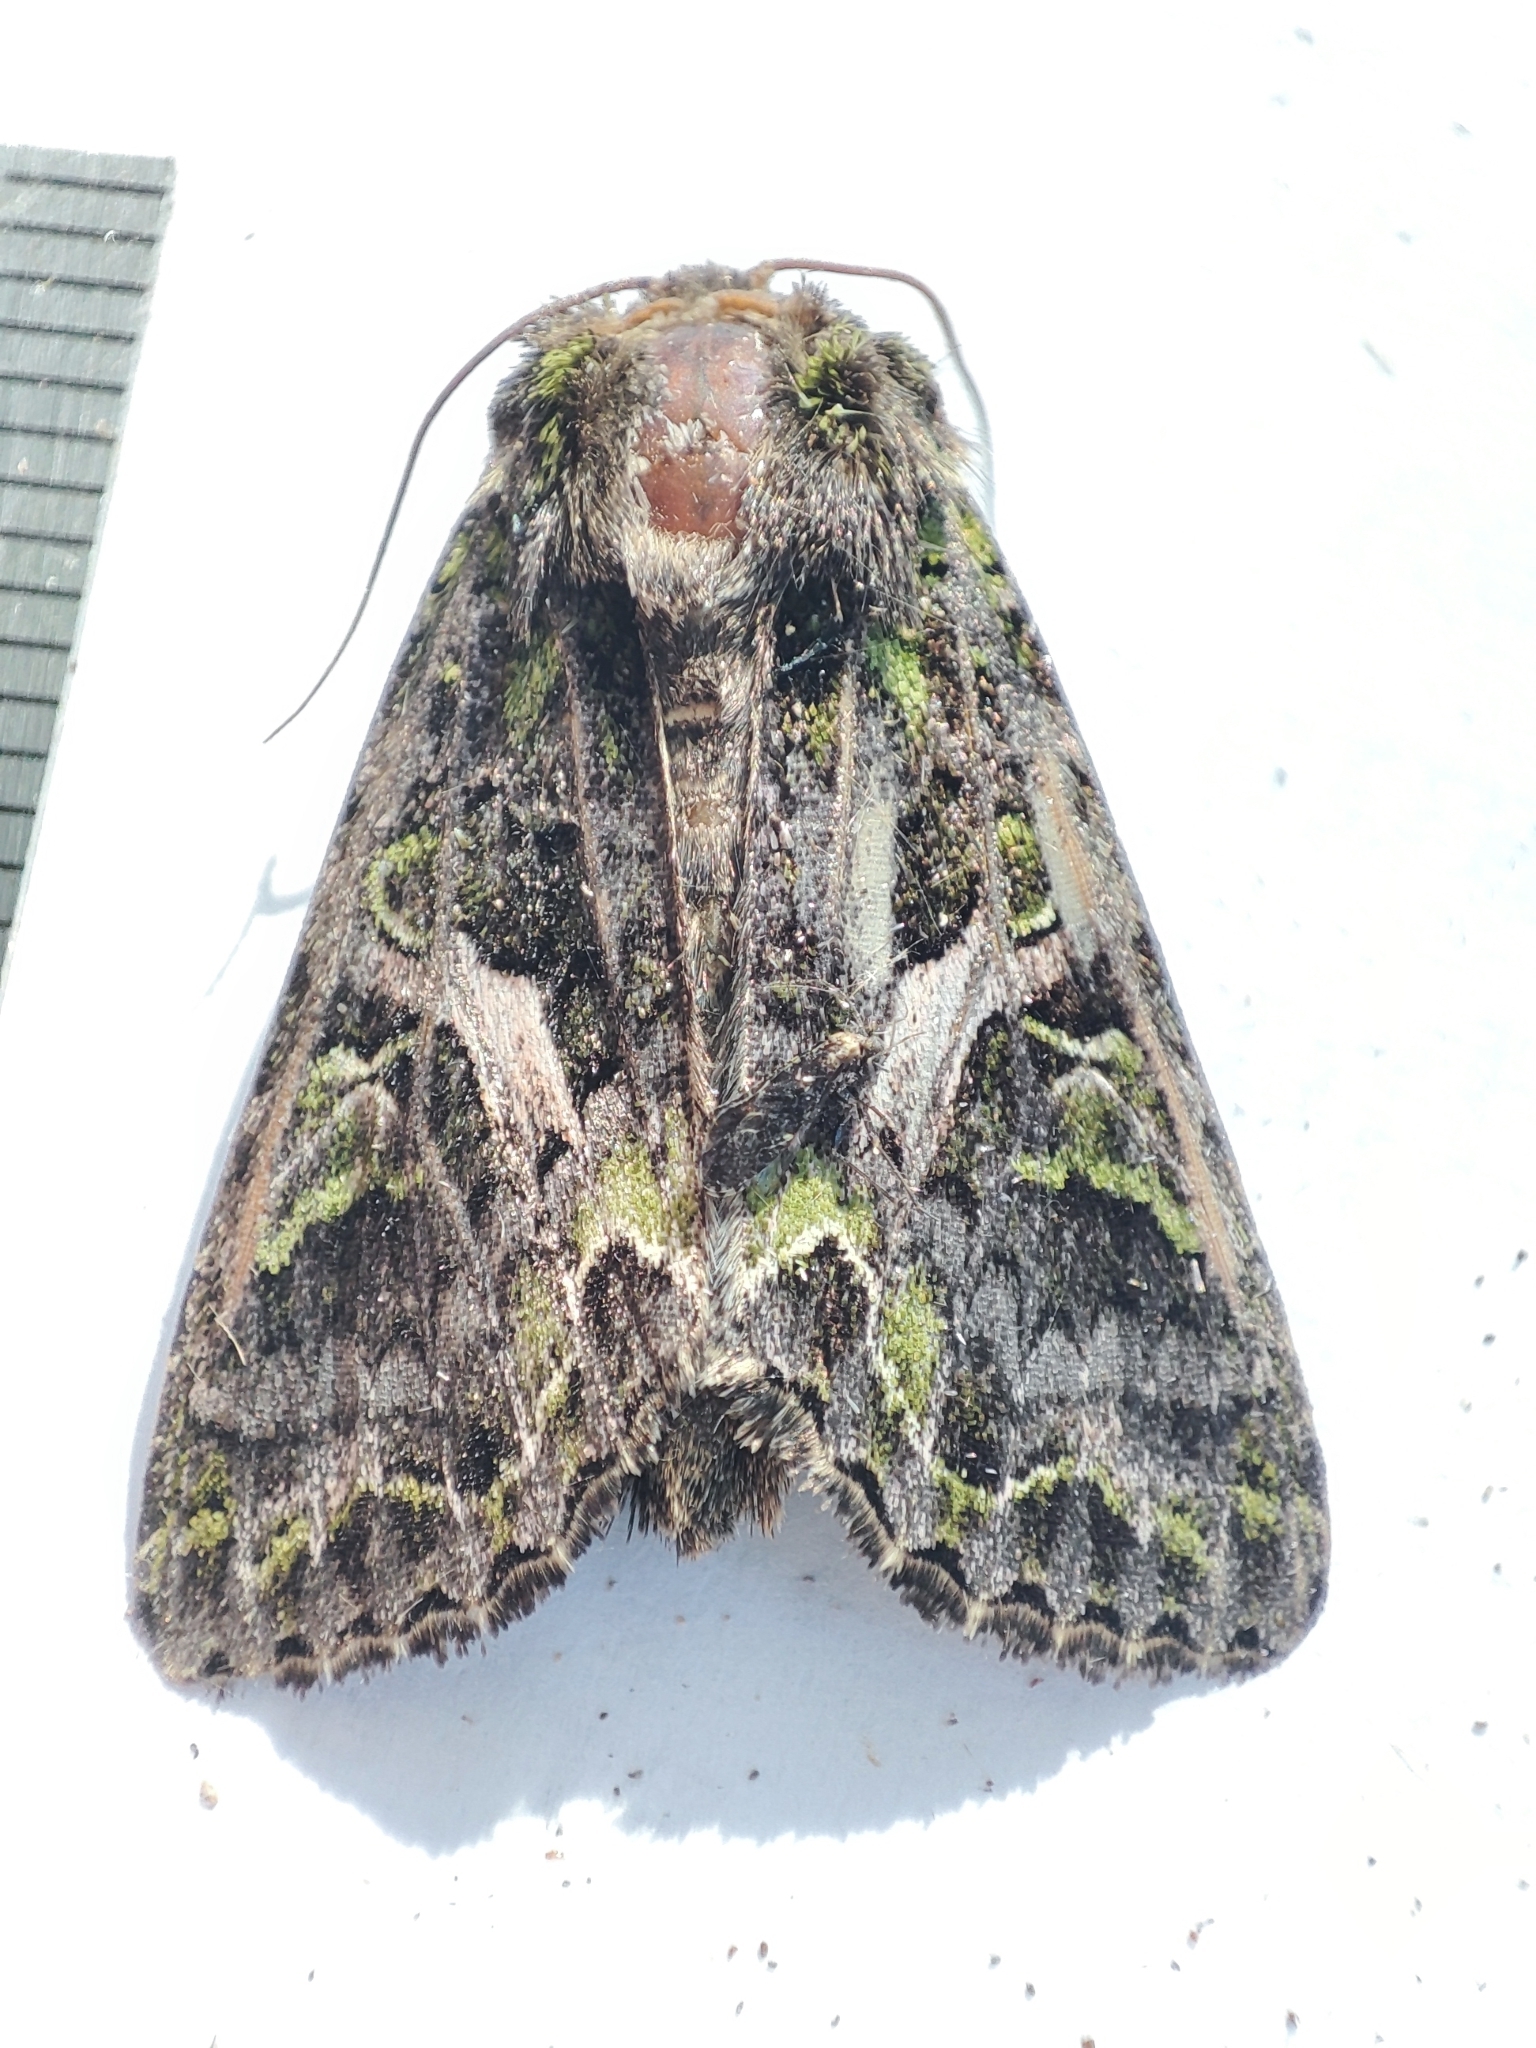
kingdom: Animalia
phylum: Arthropoda
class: Insecta
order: Lepidoptera
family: Noctuidae
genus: Trachea
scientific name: Trachea atriplicis
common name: Orache moth
